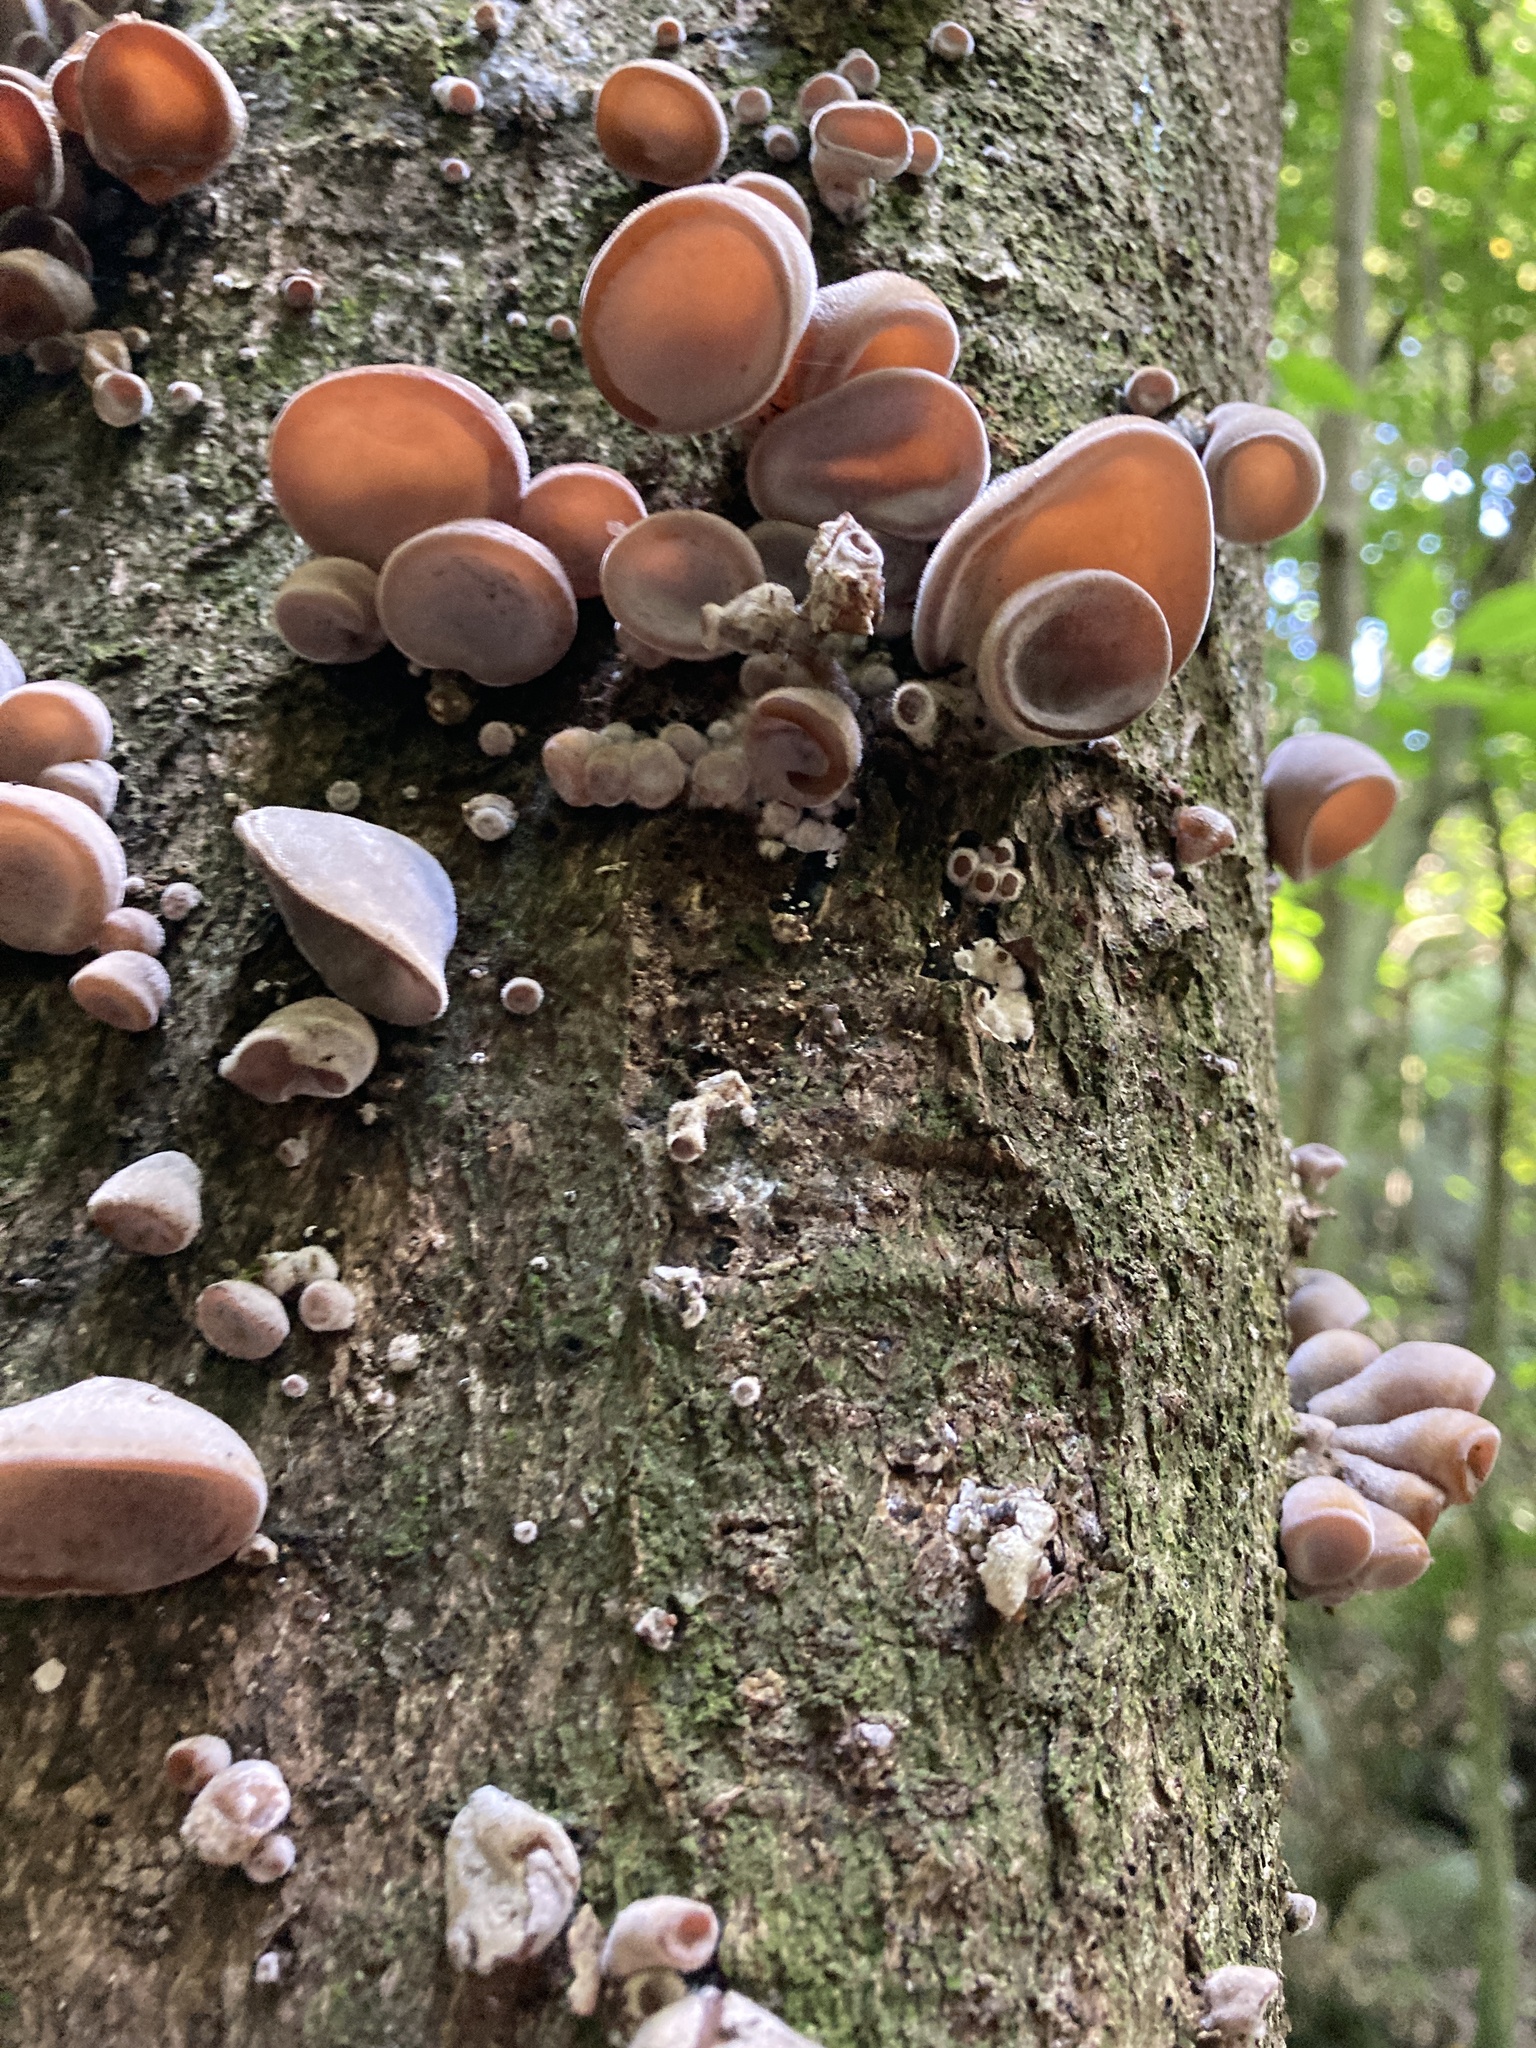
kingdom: Fungi
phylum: Basidiomycota
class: Agaricomycetes
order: Auriculariales
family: Auriculariaceae
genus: Auricularia
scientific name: Auricularia cornea
